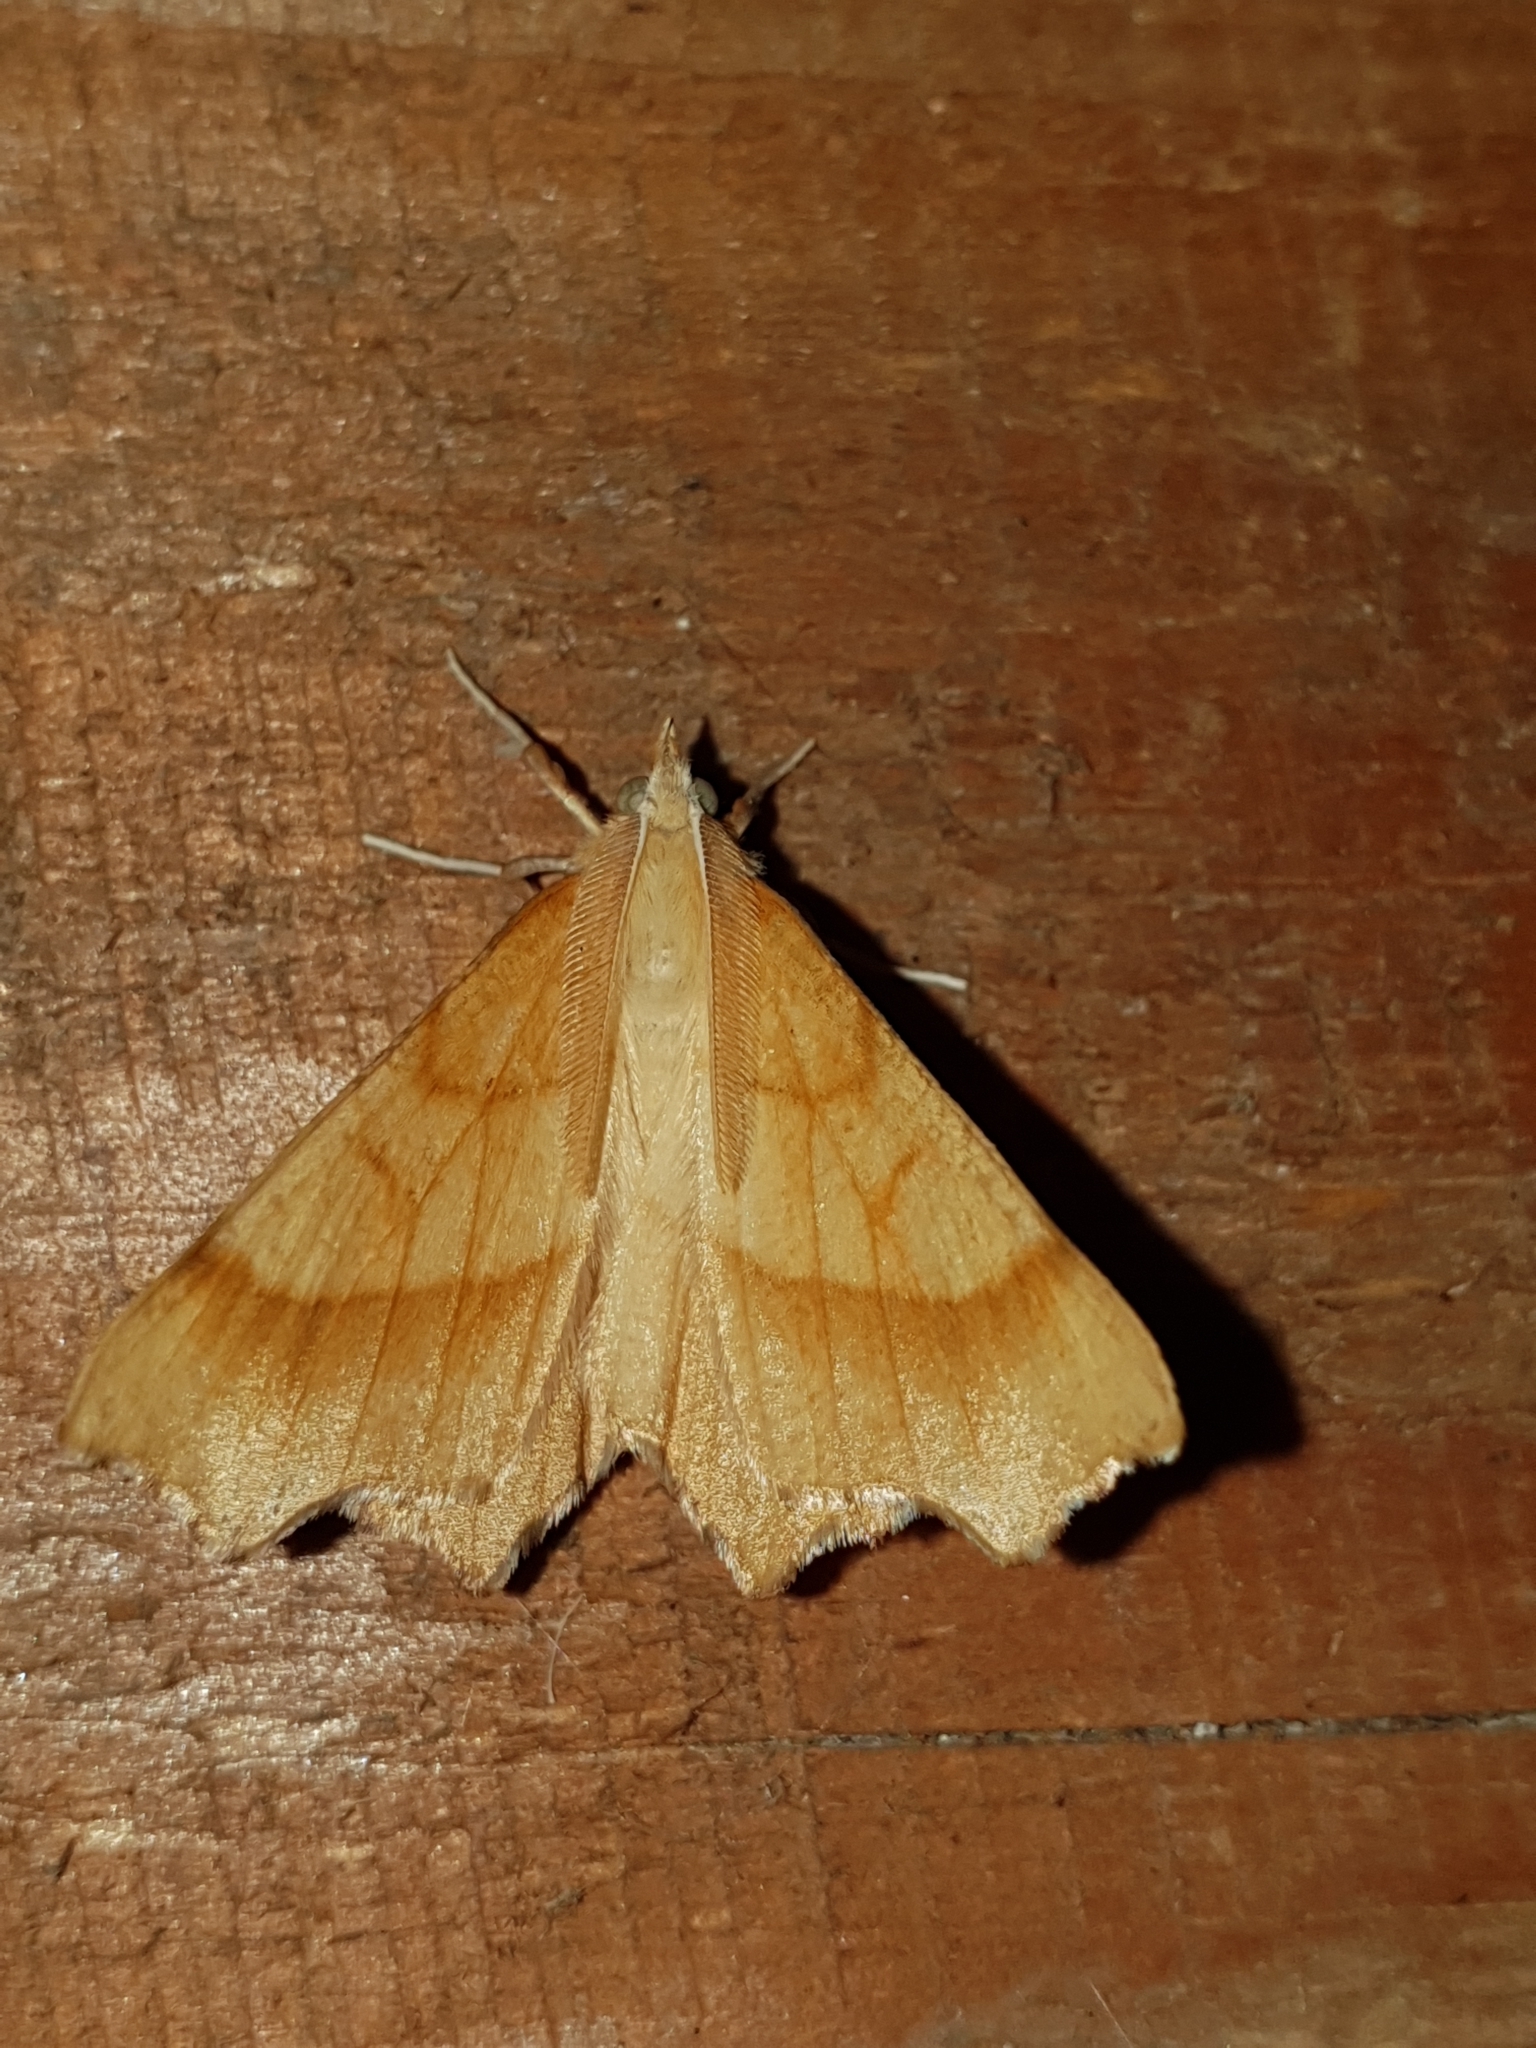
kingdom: Animalia
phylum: Arthropoda
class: Insecta
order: Lepidoptera
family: Geometridae
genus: Ennomos
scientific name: Ennomos quercinaria
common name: August thorn
